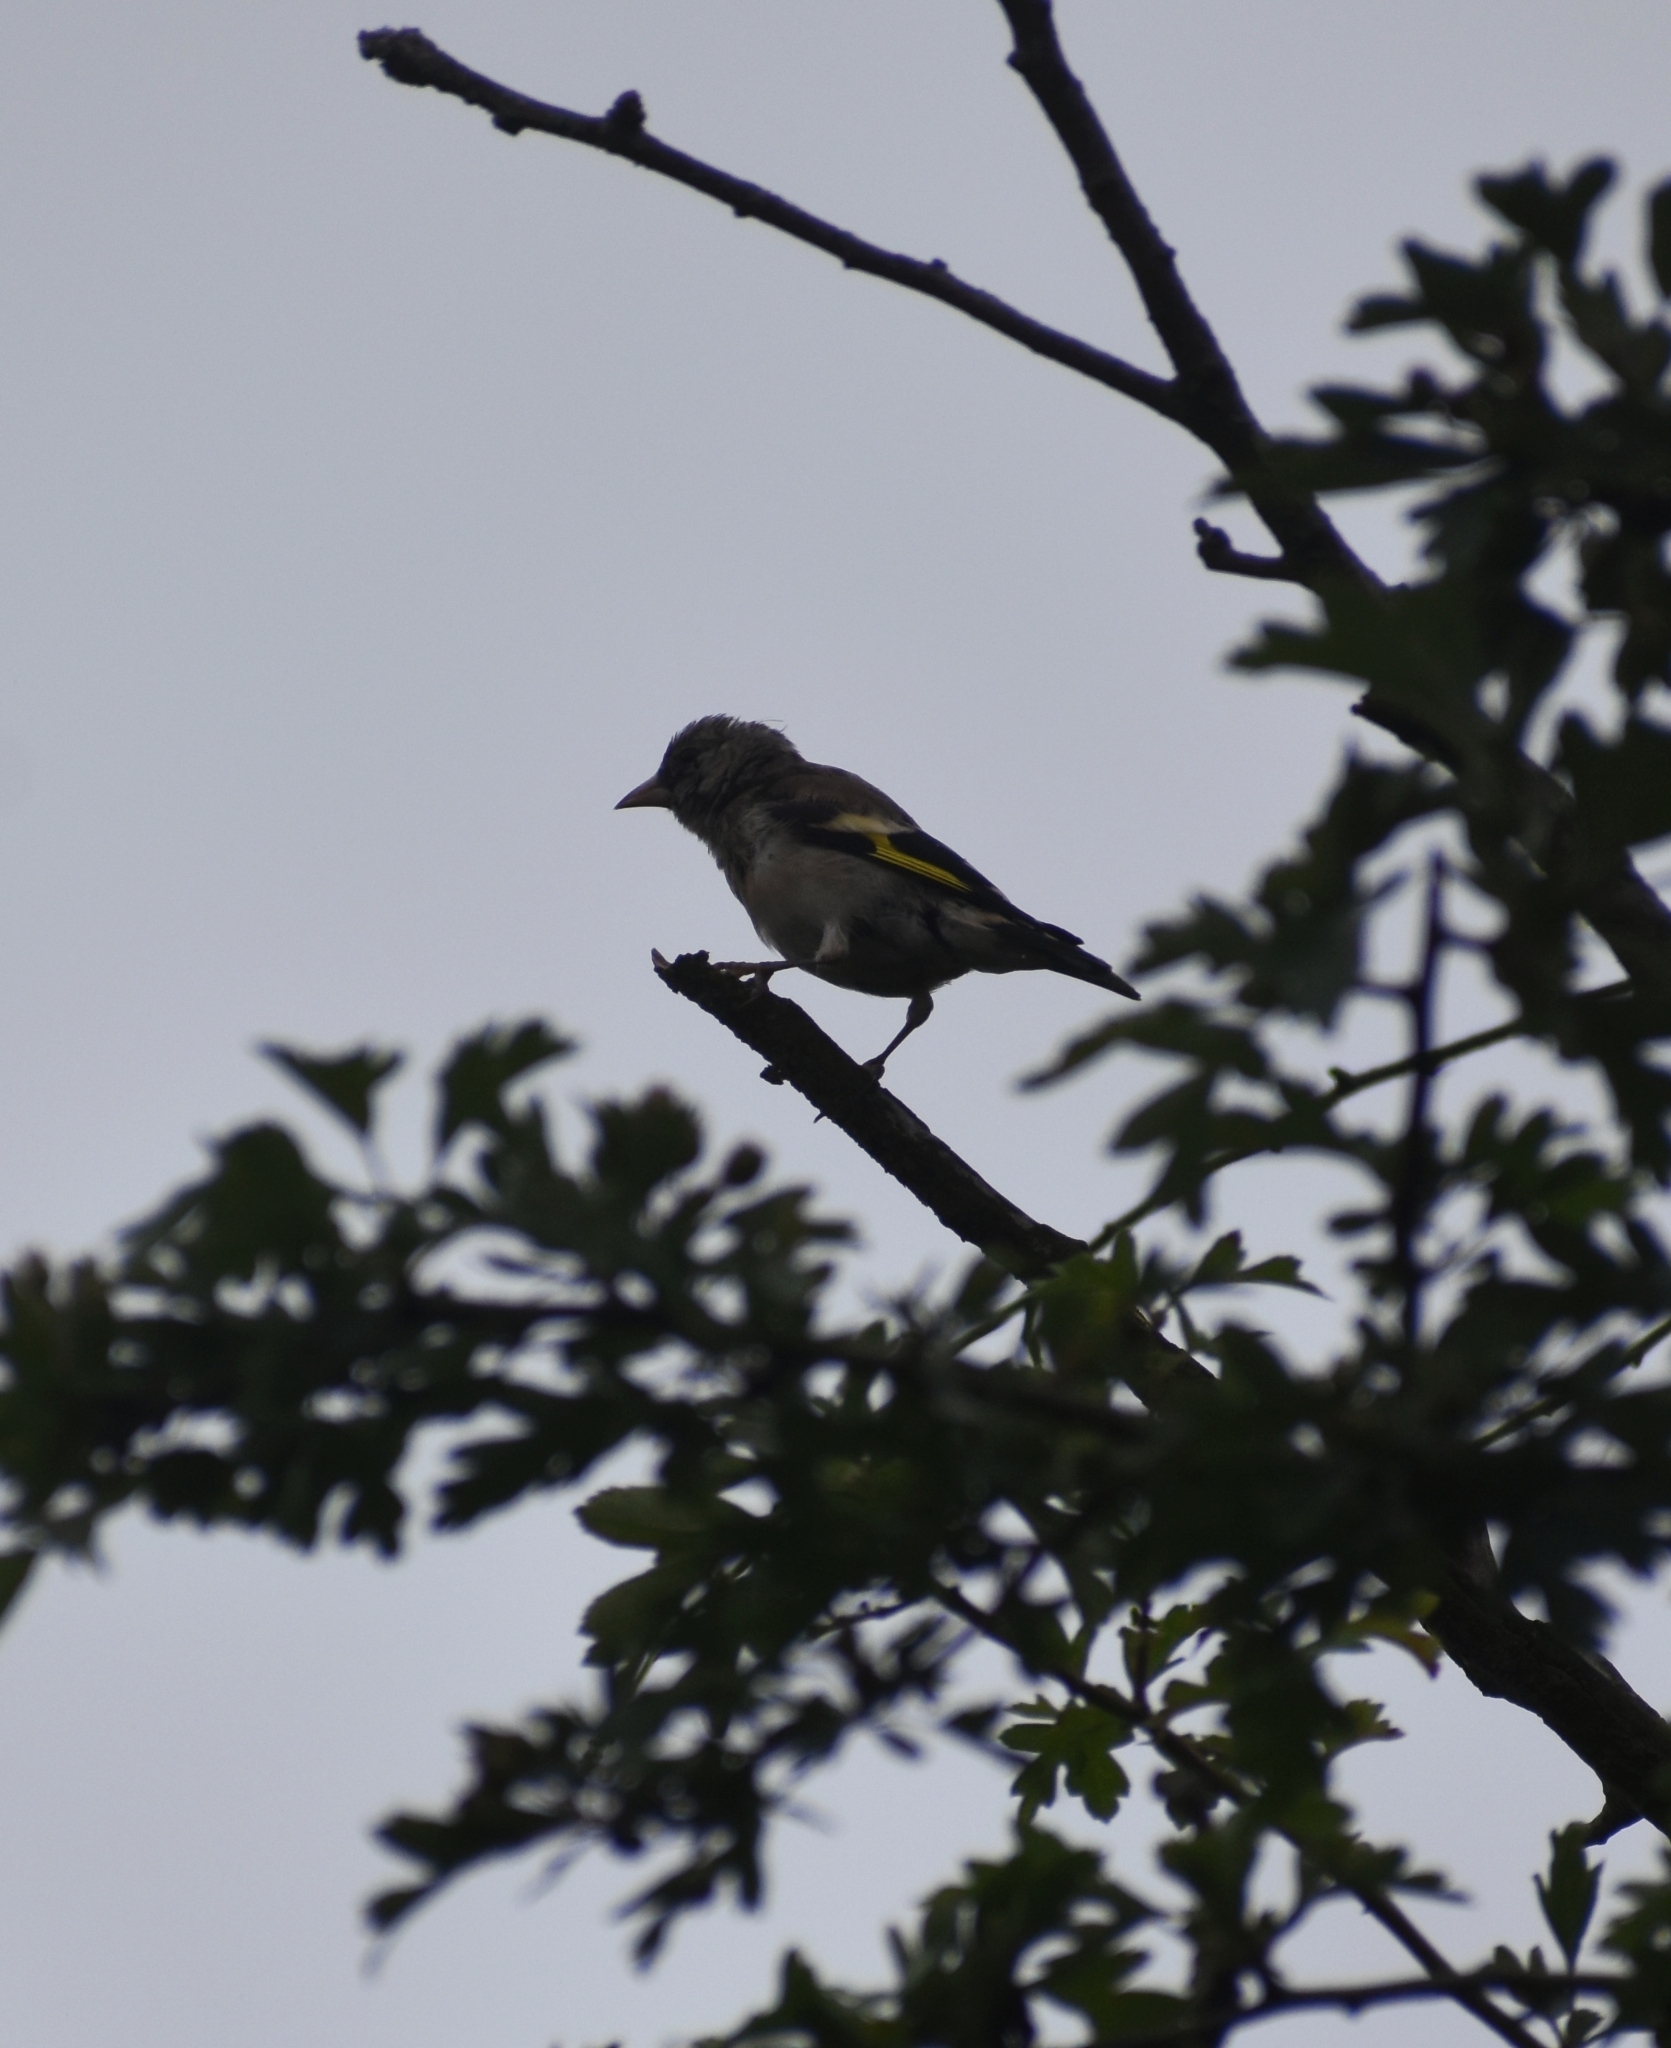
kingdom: Animalia
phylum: Chordata
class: Aves
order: Passeriformes
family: Fringillidae
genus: Carduelis
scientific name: Carduelis carduelis
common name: European goldfinch
